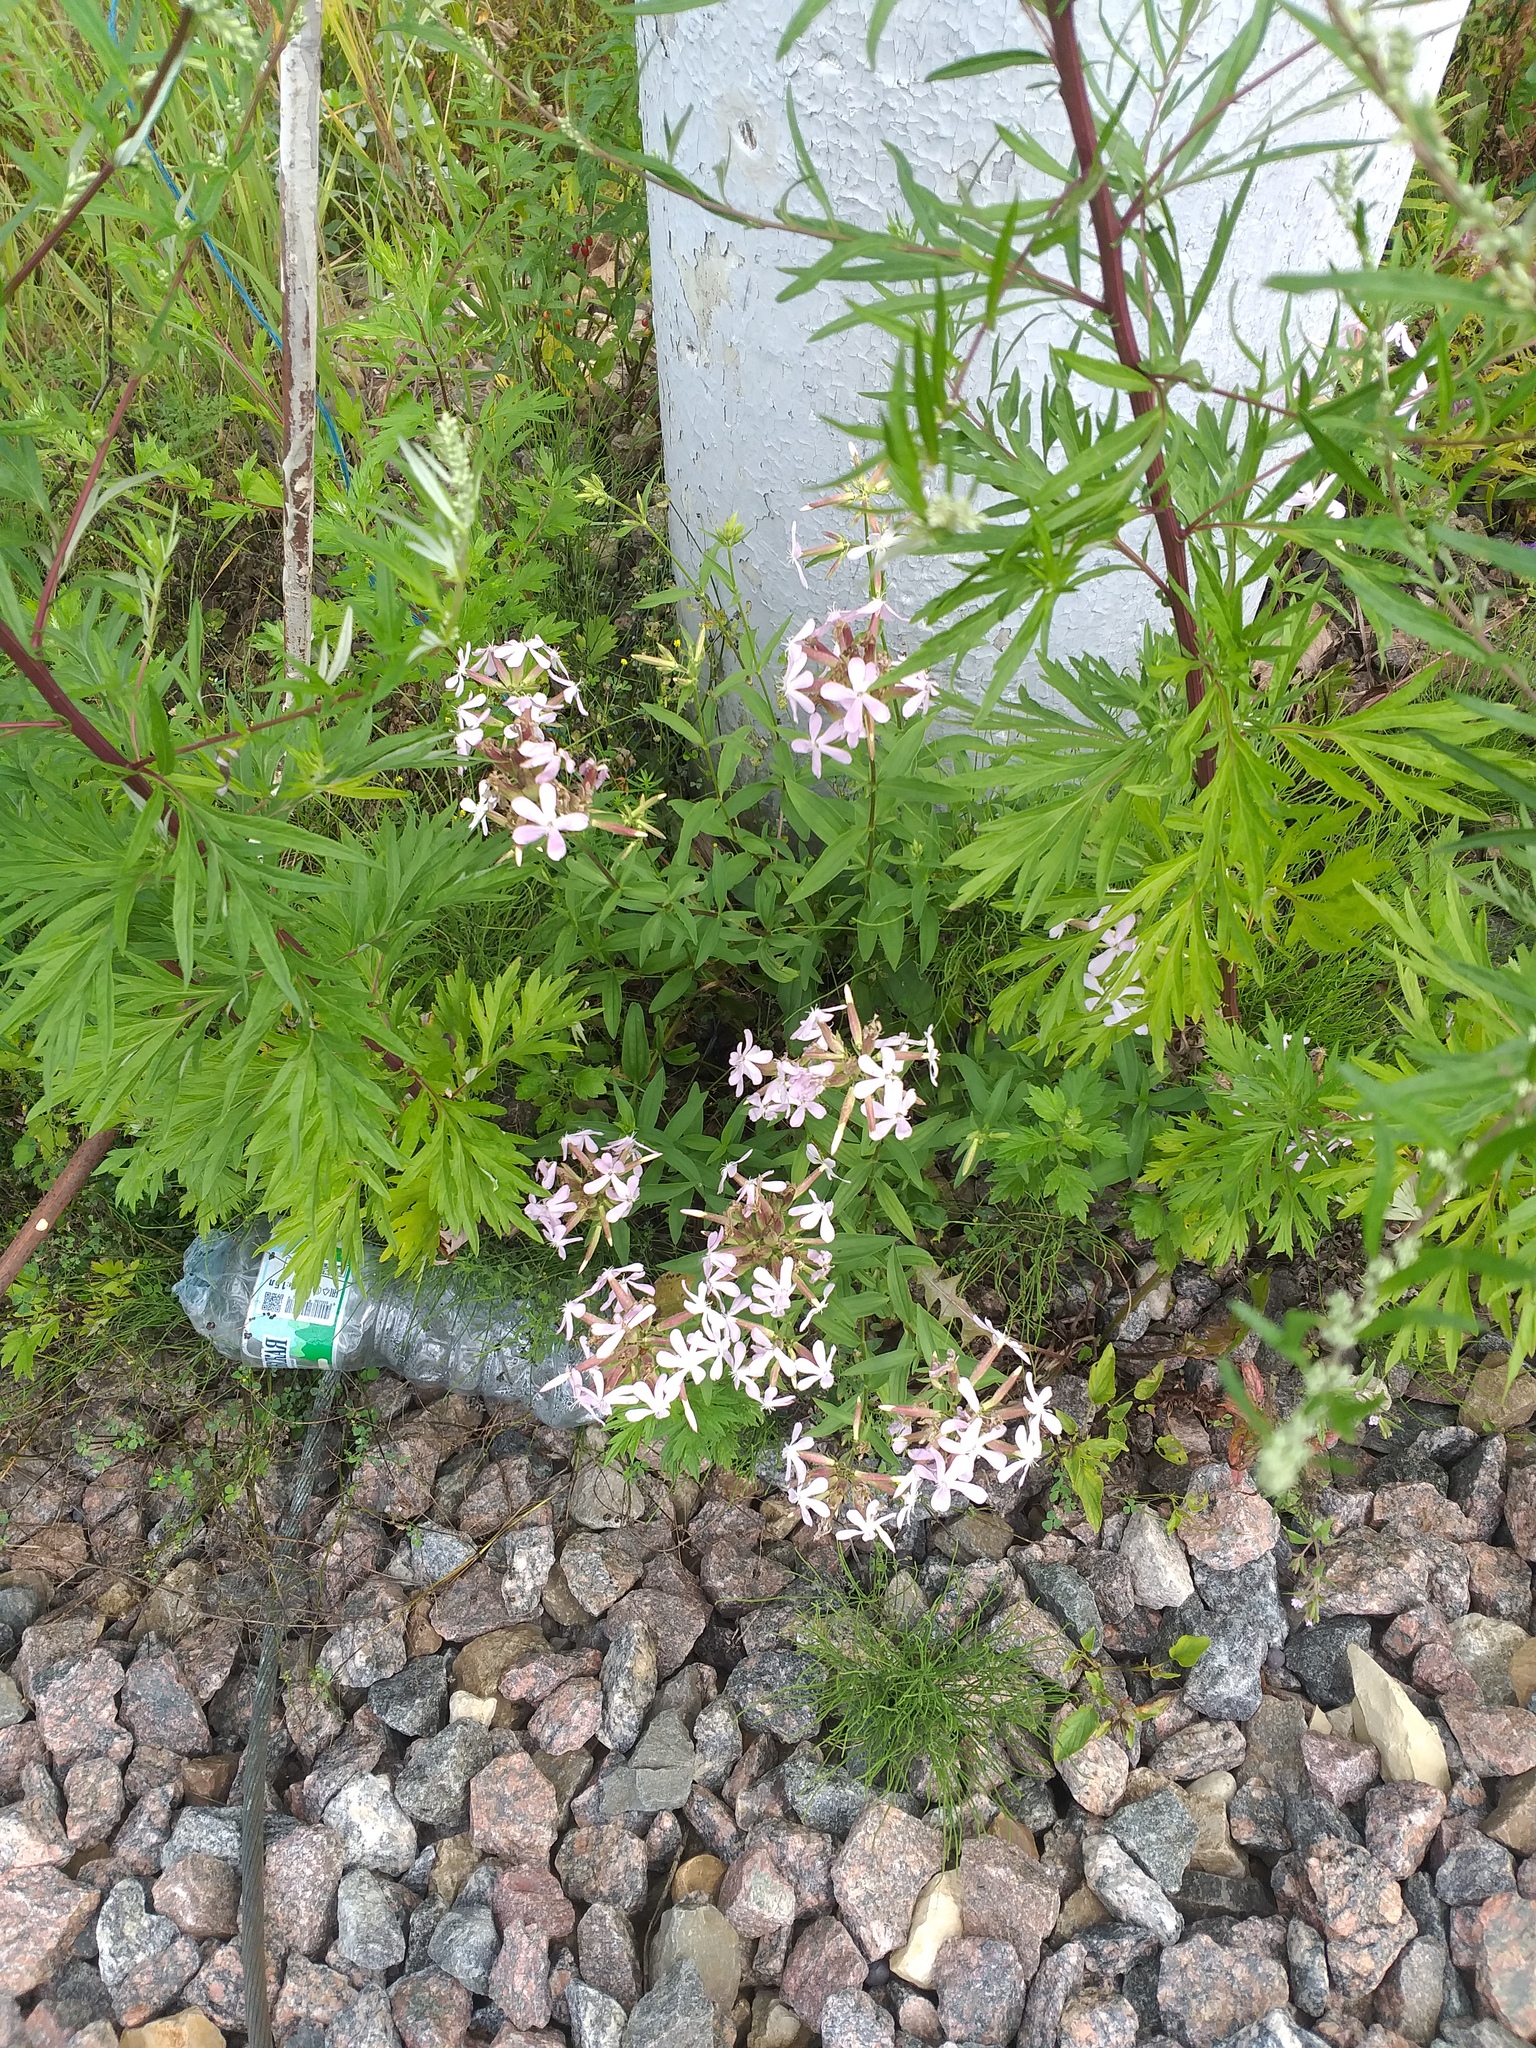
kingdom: Plantae
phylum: Tracheophyta
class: Magnoliopsida
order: Caryophyllales
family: Caryophyllaceae
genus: Saponaria
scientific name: Saponaria officinalis
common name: Soapwort
